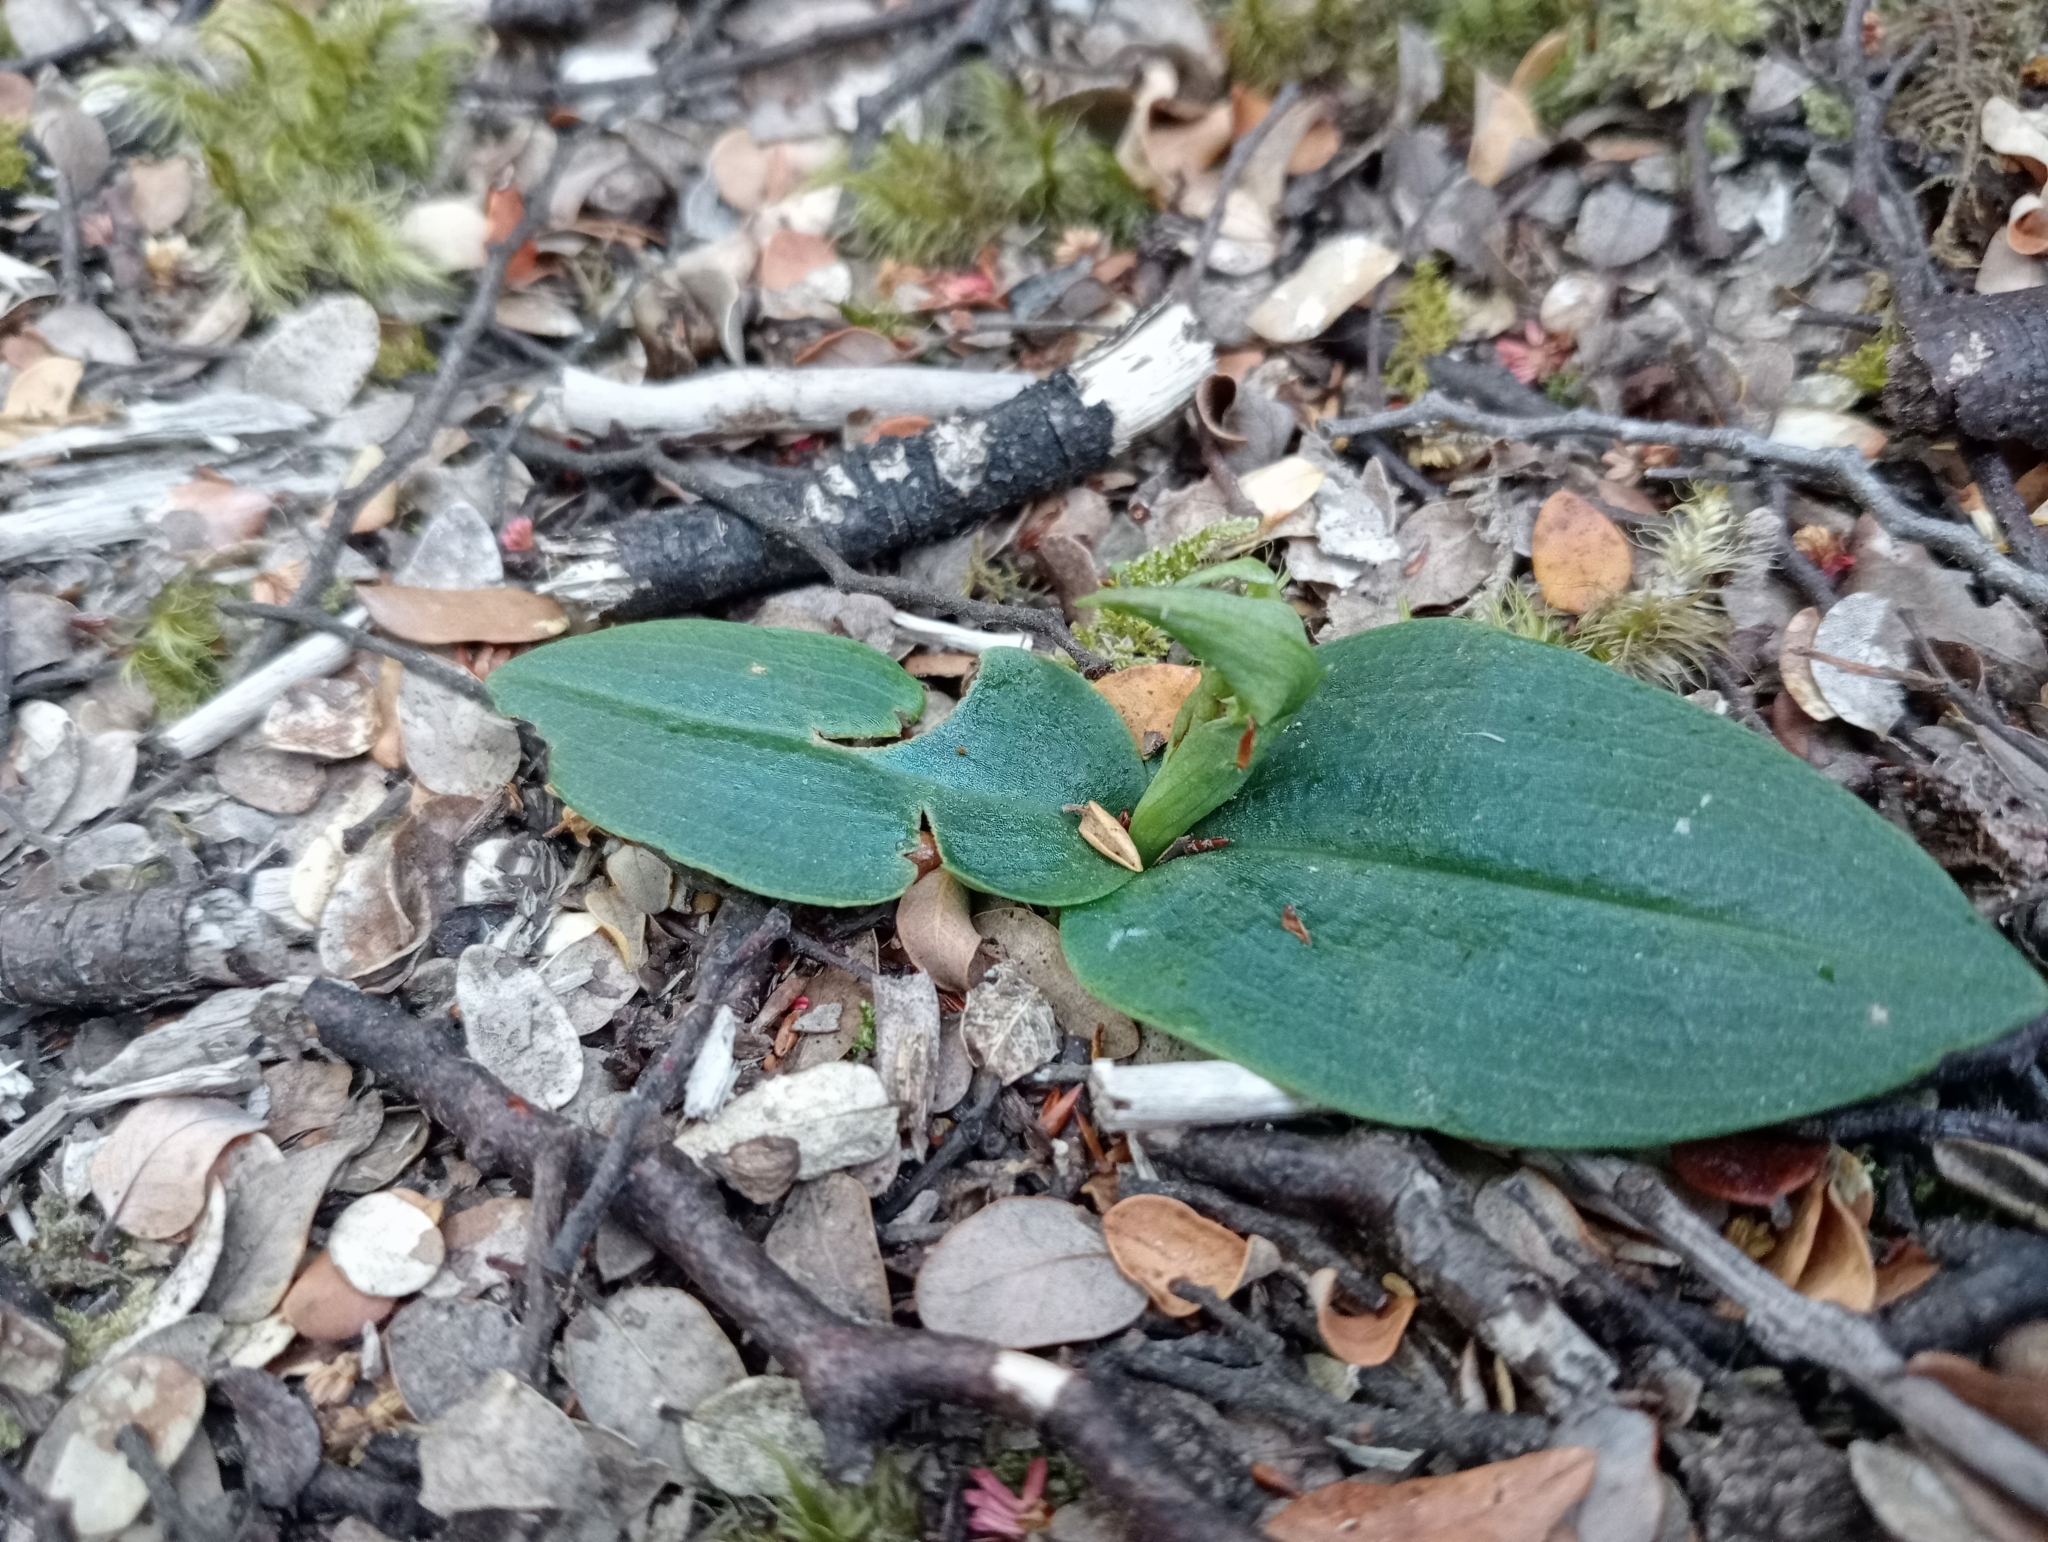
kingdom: Plantae
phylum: Tracheophyta
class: Liliopsida
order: Asparagales
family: Orchidaceae
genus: Chiloglottis
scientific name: Chiloglottis cornuta
